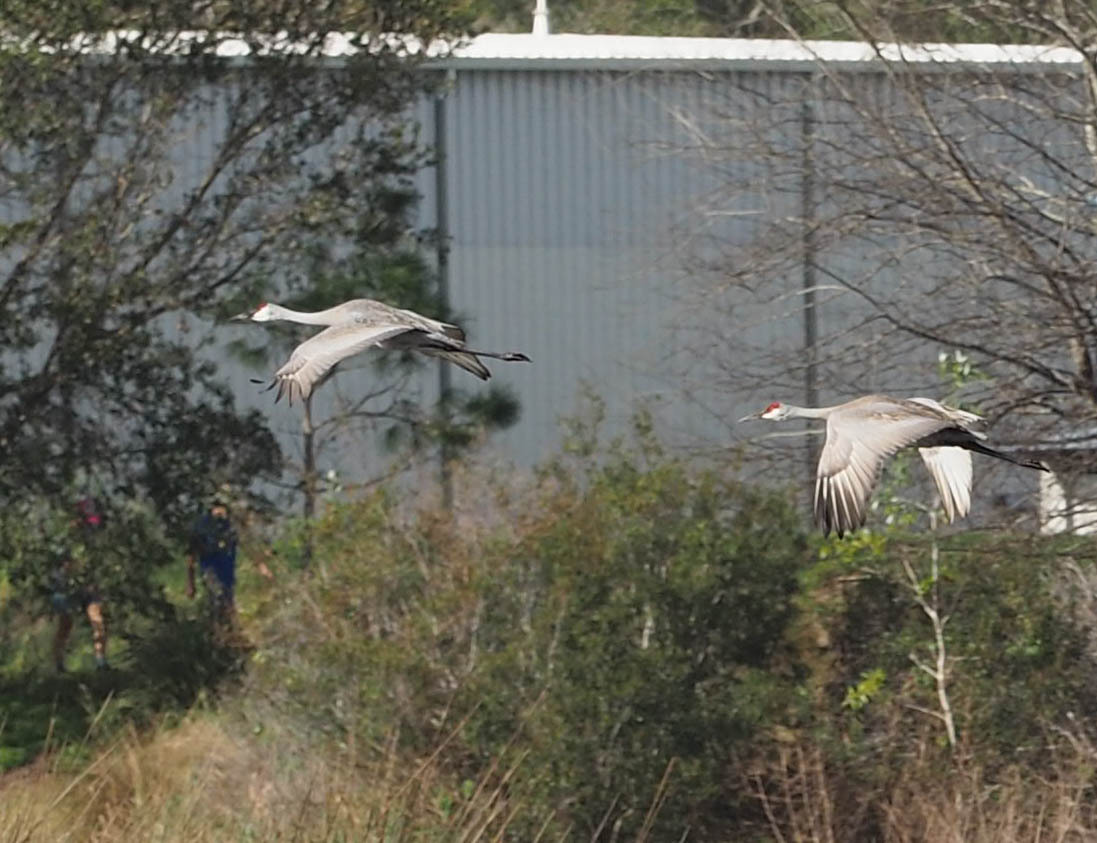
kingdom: Animalia
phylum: Chordata
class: Aves
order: Gruiformes
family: Gruidae
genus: Grus
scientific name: Grus canadensis
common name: Sandhill crane
